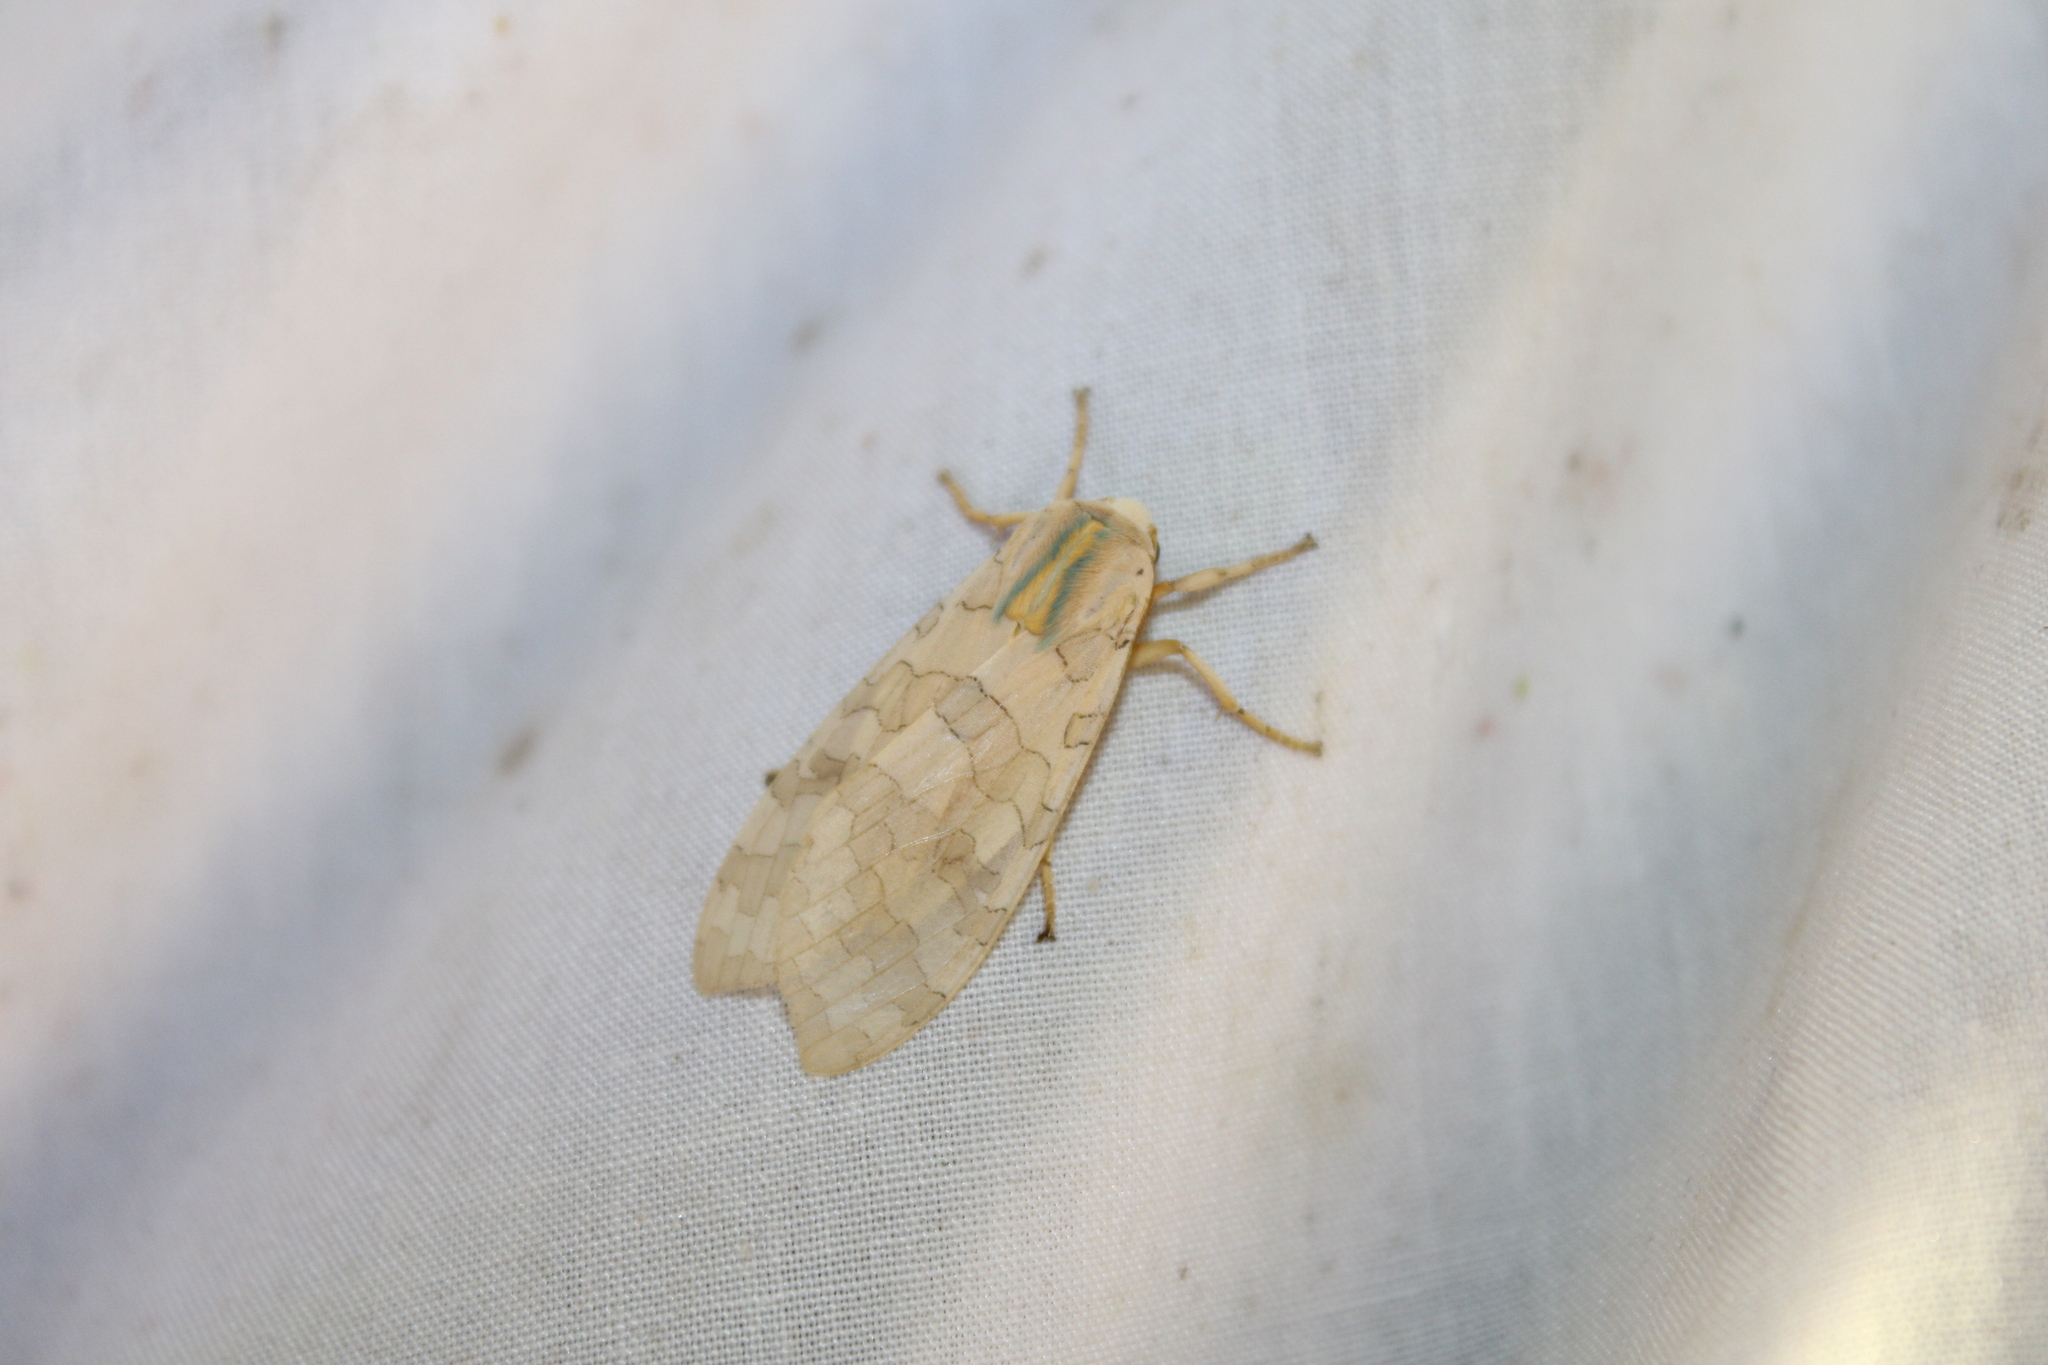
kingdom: Animalia
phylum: Arthropoda
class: Insecta
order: Lepidoptera
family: Erebidae
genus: Halysidota
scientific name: Halysidota
